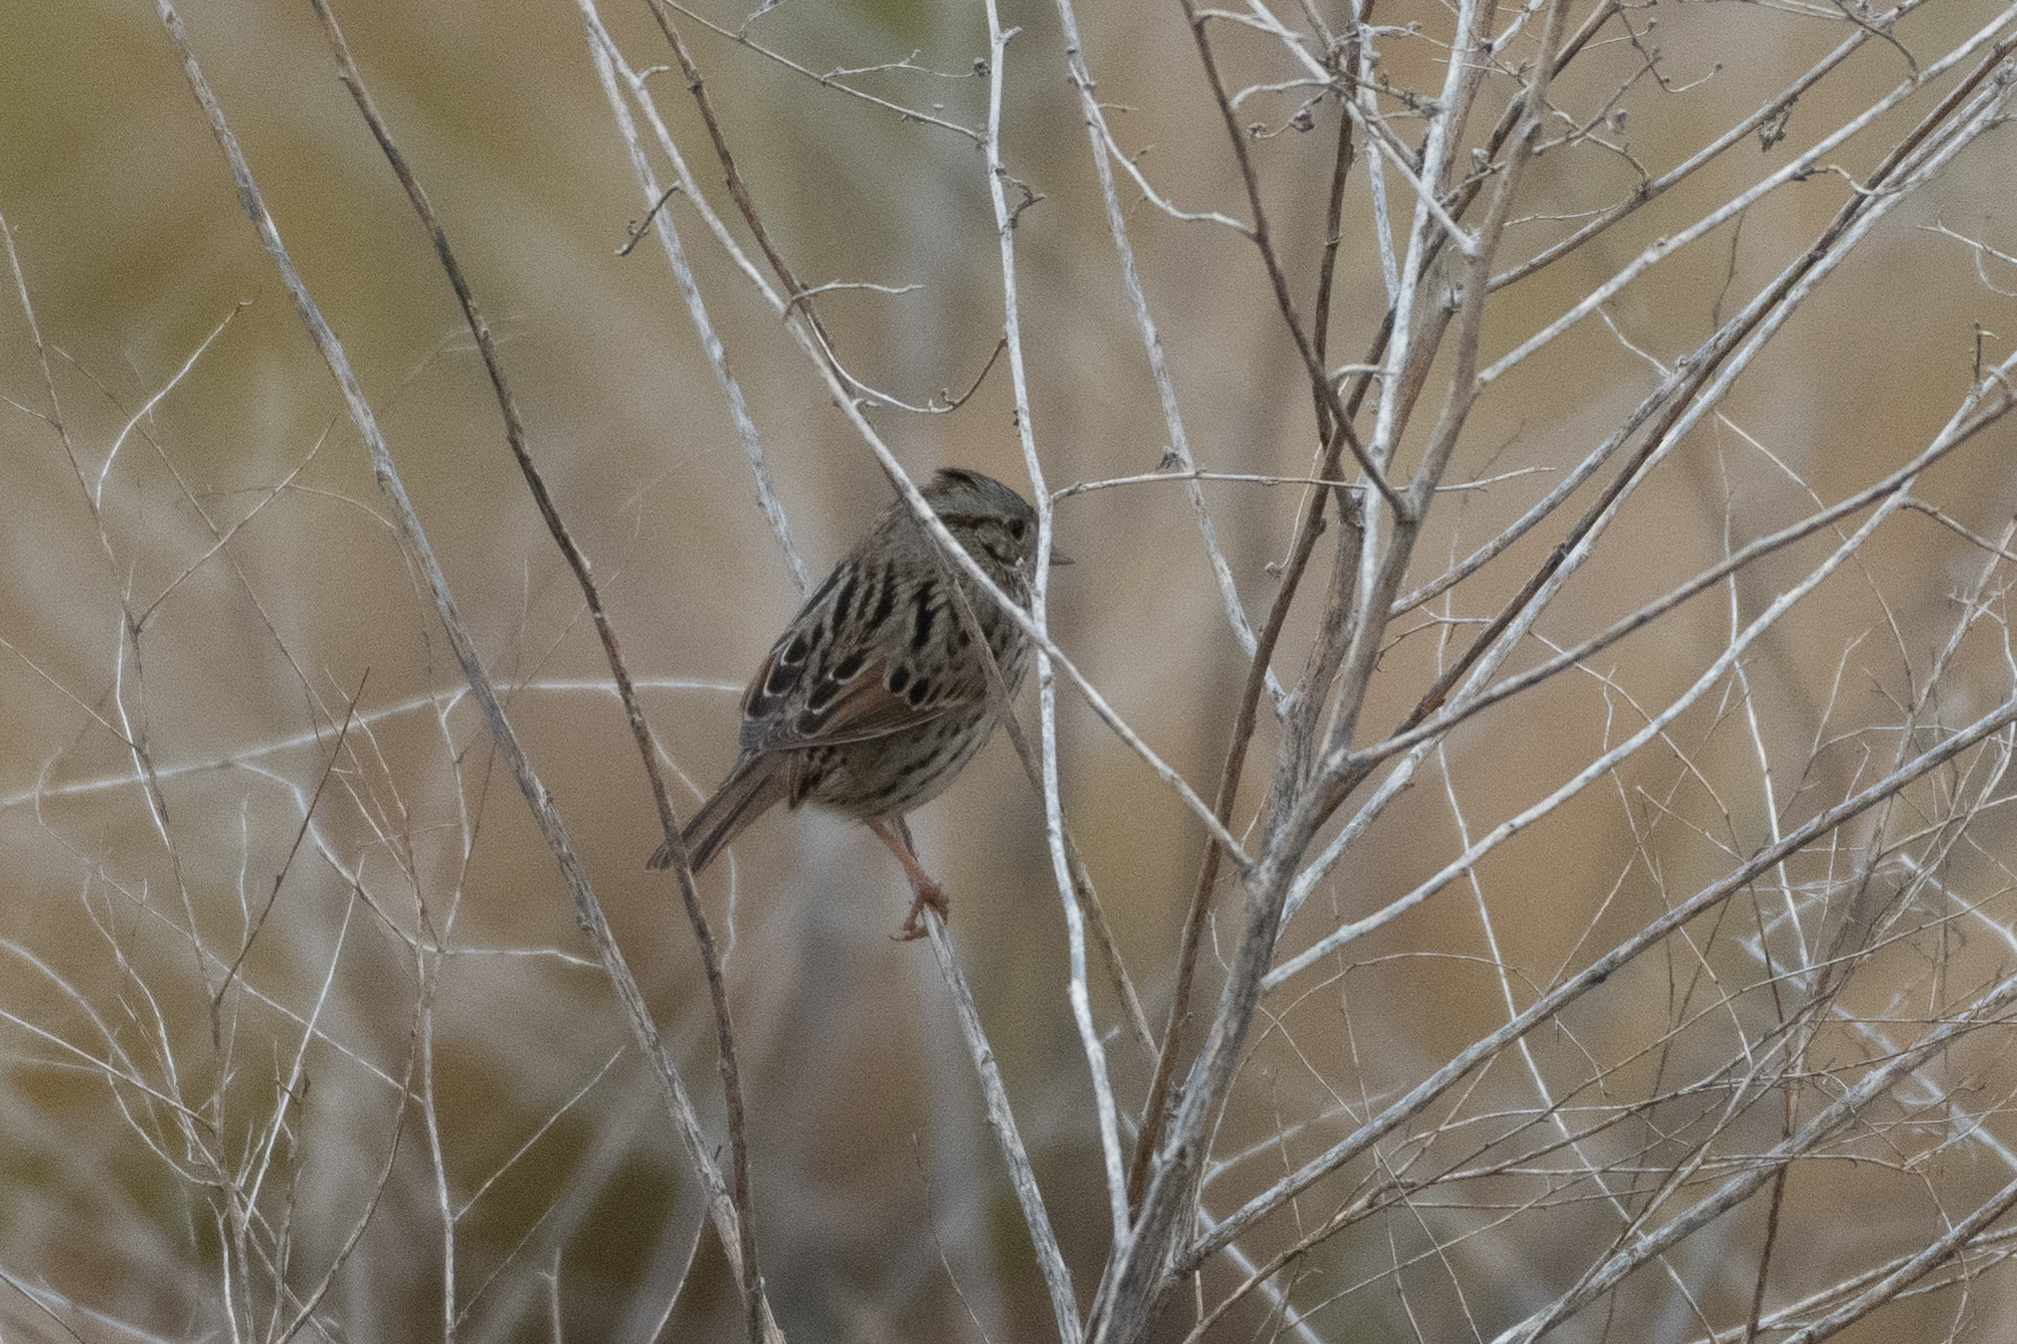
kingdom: Animalia
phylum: Chordata
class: Aves
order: Passeriformes
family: Passerellidae
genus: Melospiza
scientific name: Melospiza lincolnii
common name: Lincoln's sparrow
